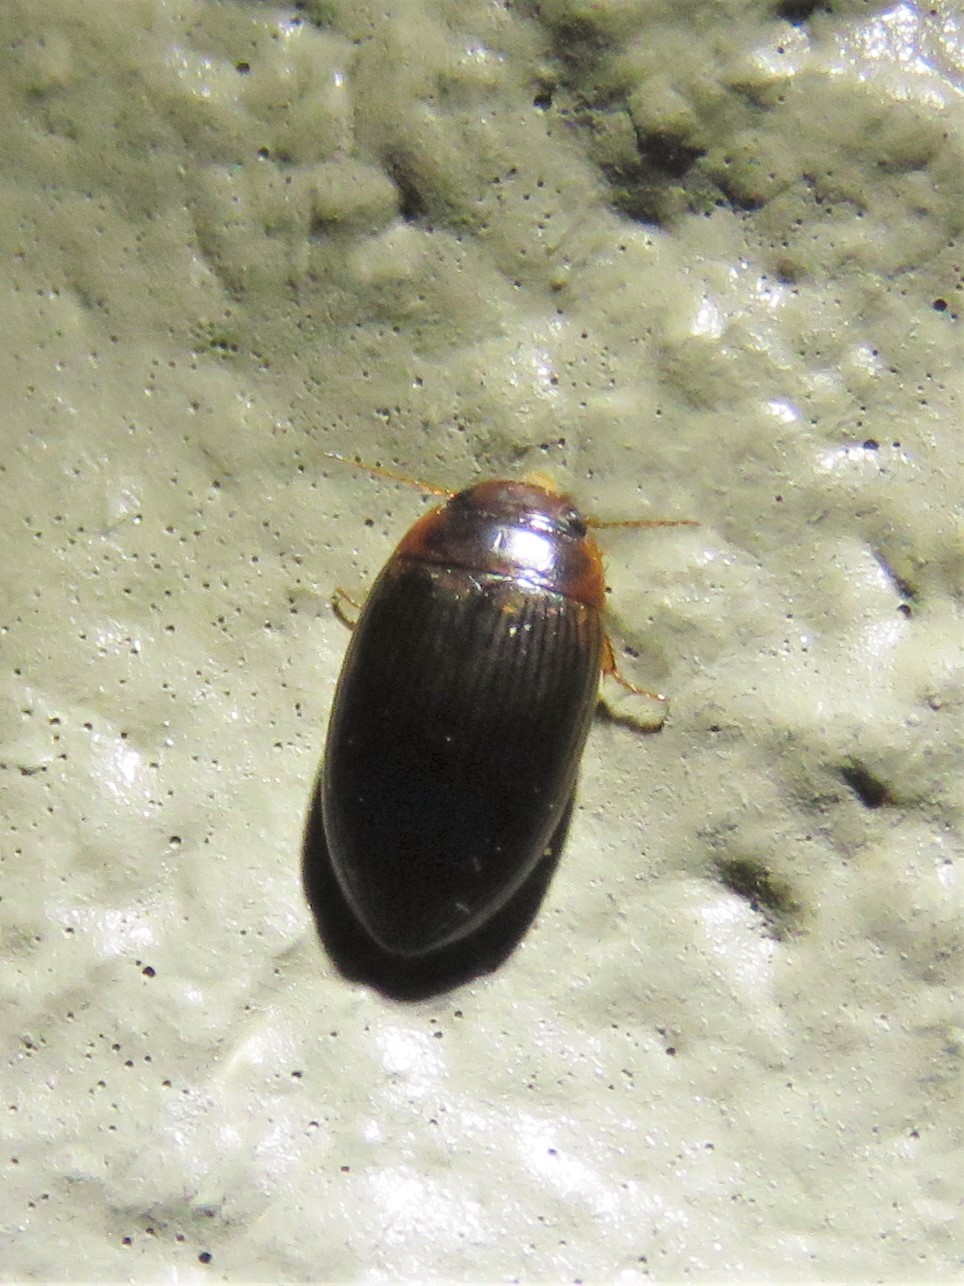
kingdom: Animalia
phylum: Arthropoda
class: Insecta
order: Coleoptera
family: Dytiscidae
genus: Copelatus
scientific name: Copelatus glyphicus
